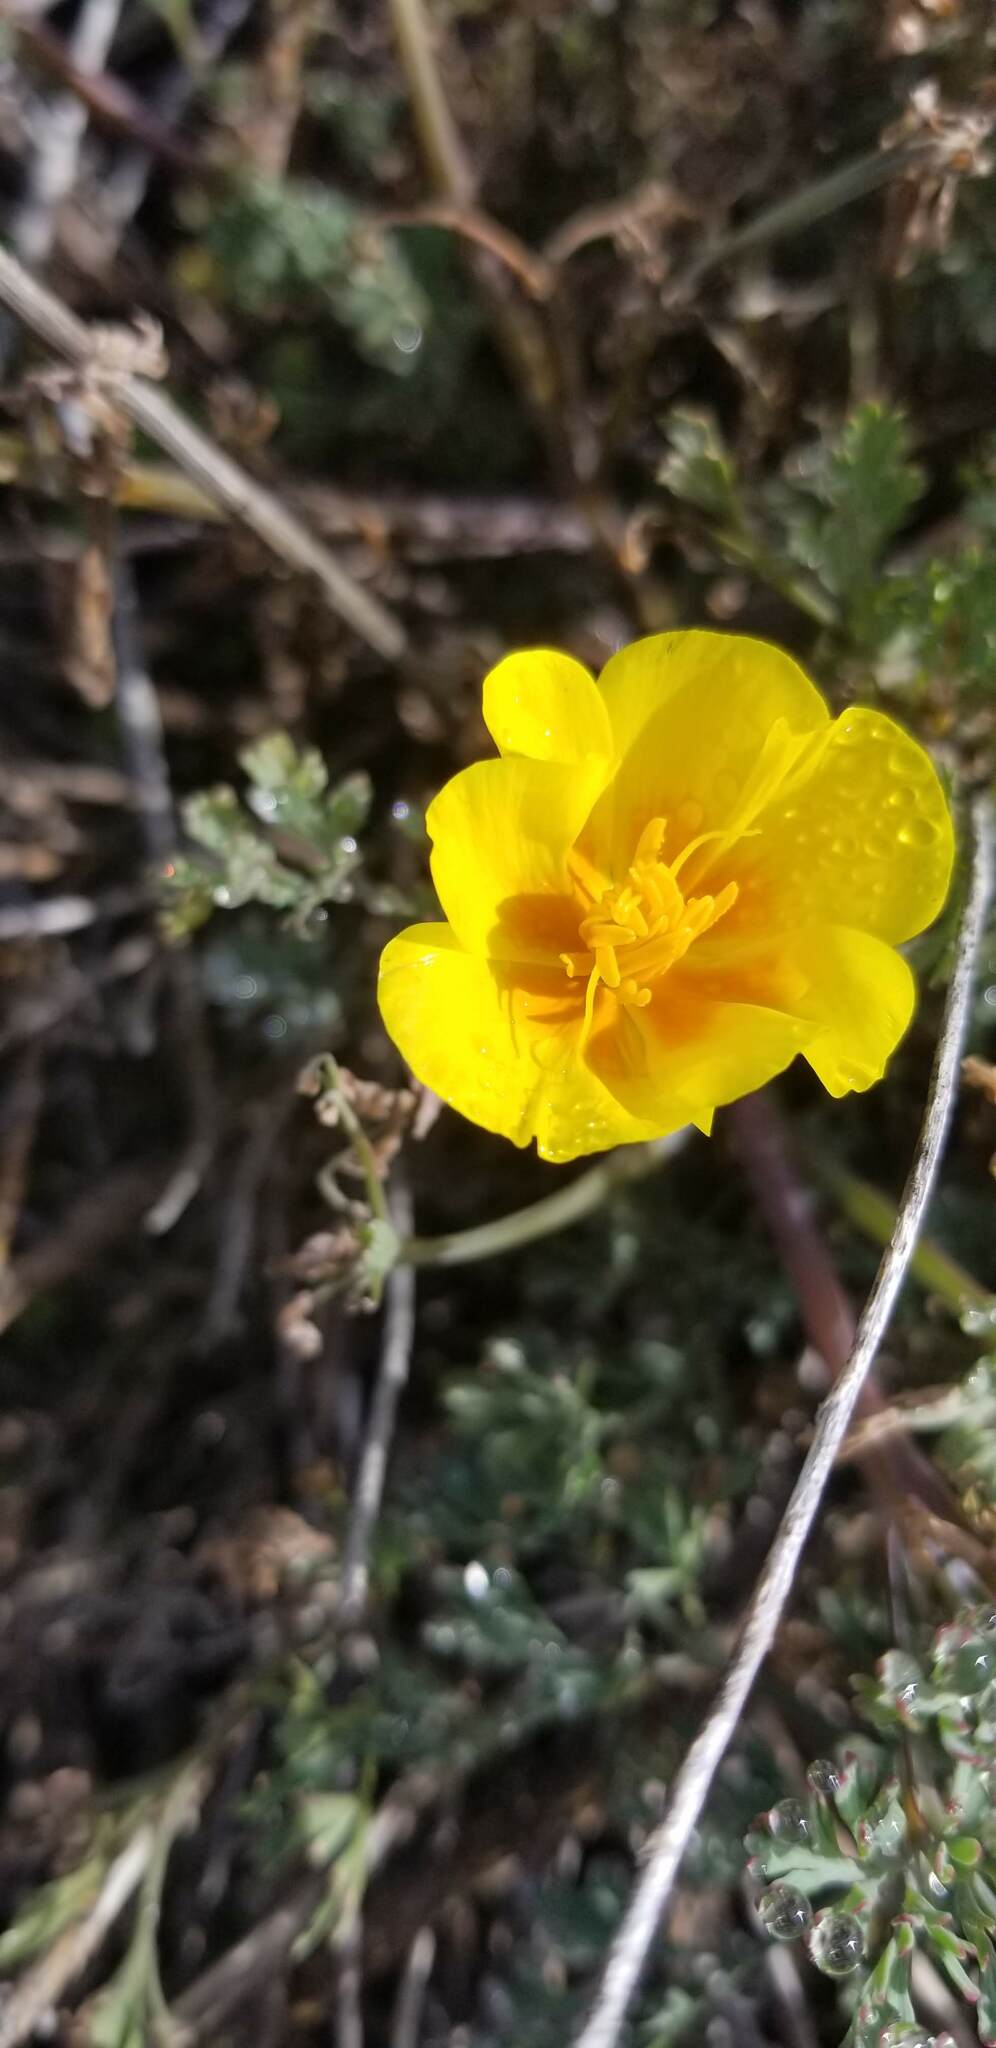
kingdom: Plantae
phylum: Tracheophyta
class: Magnoliopsida
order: Ranunculales
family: Papaveraceae
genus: Eschscholzia
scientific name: Eschscholzia californica
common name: California poppy
